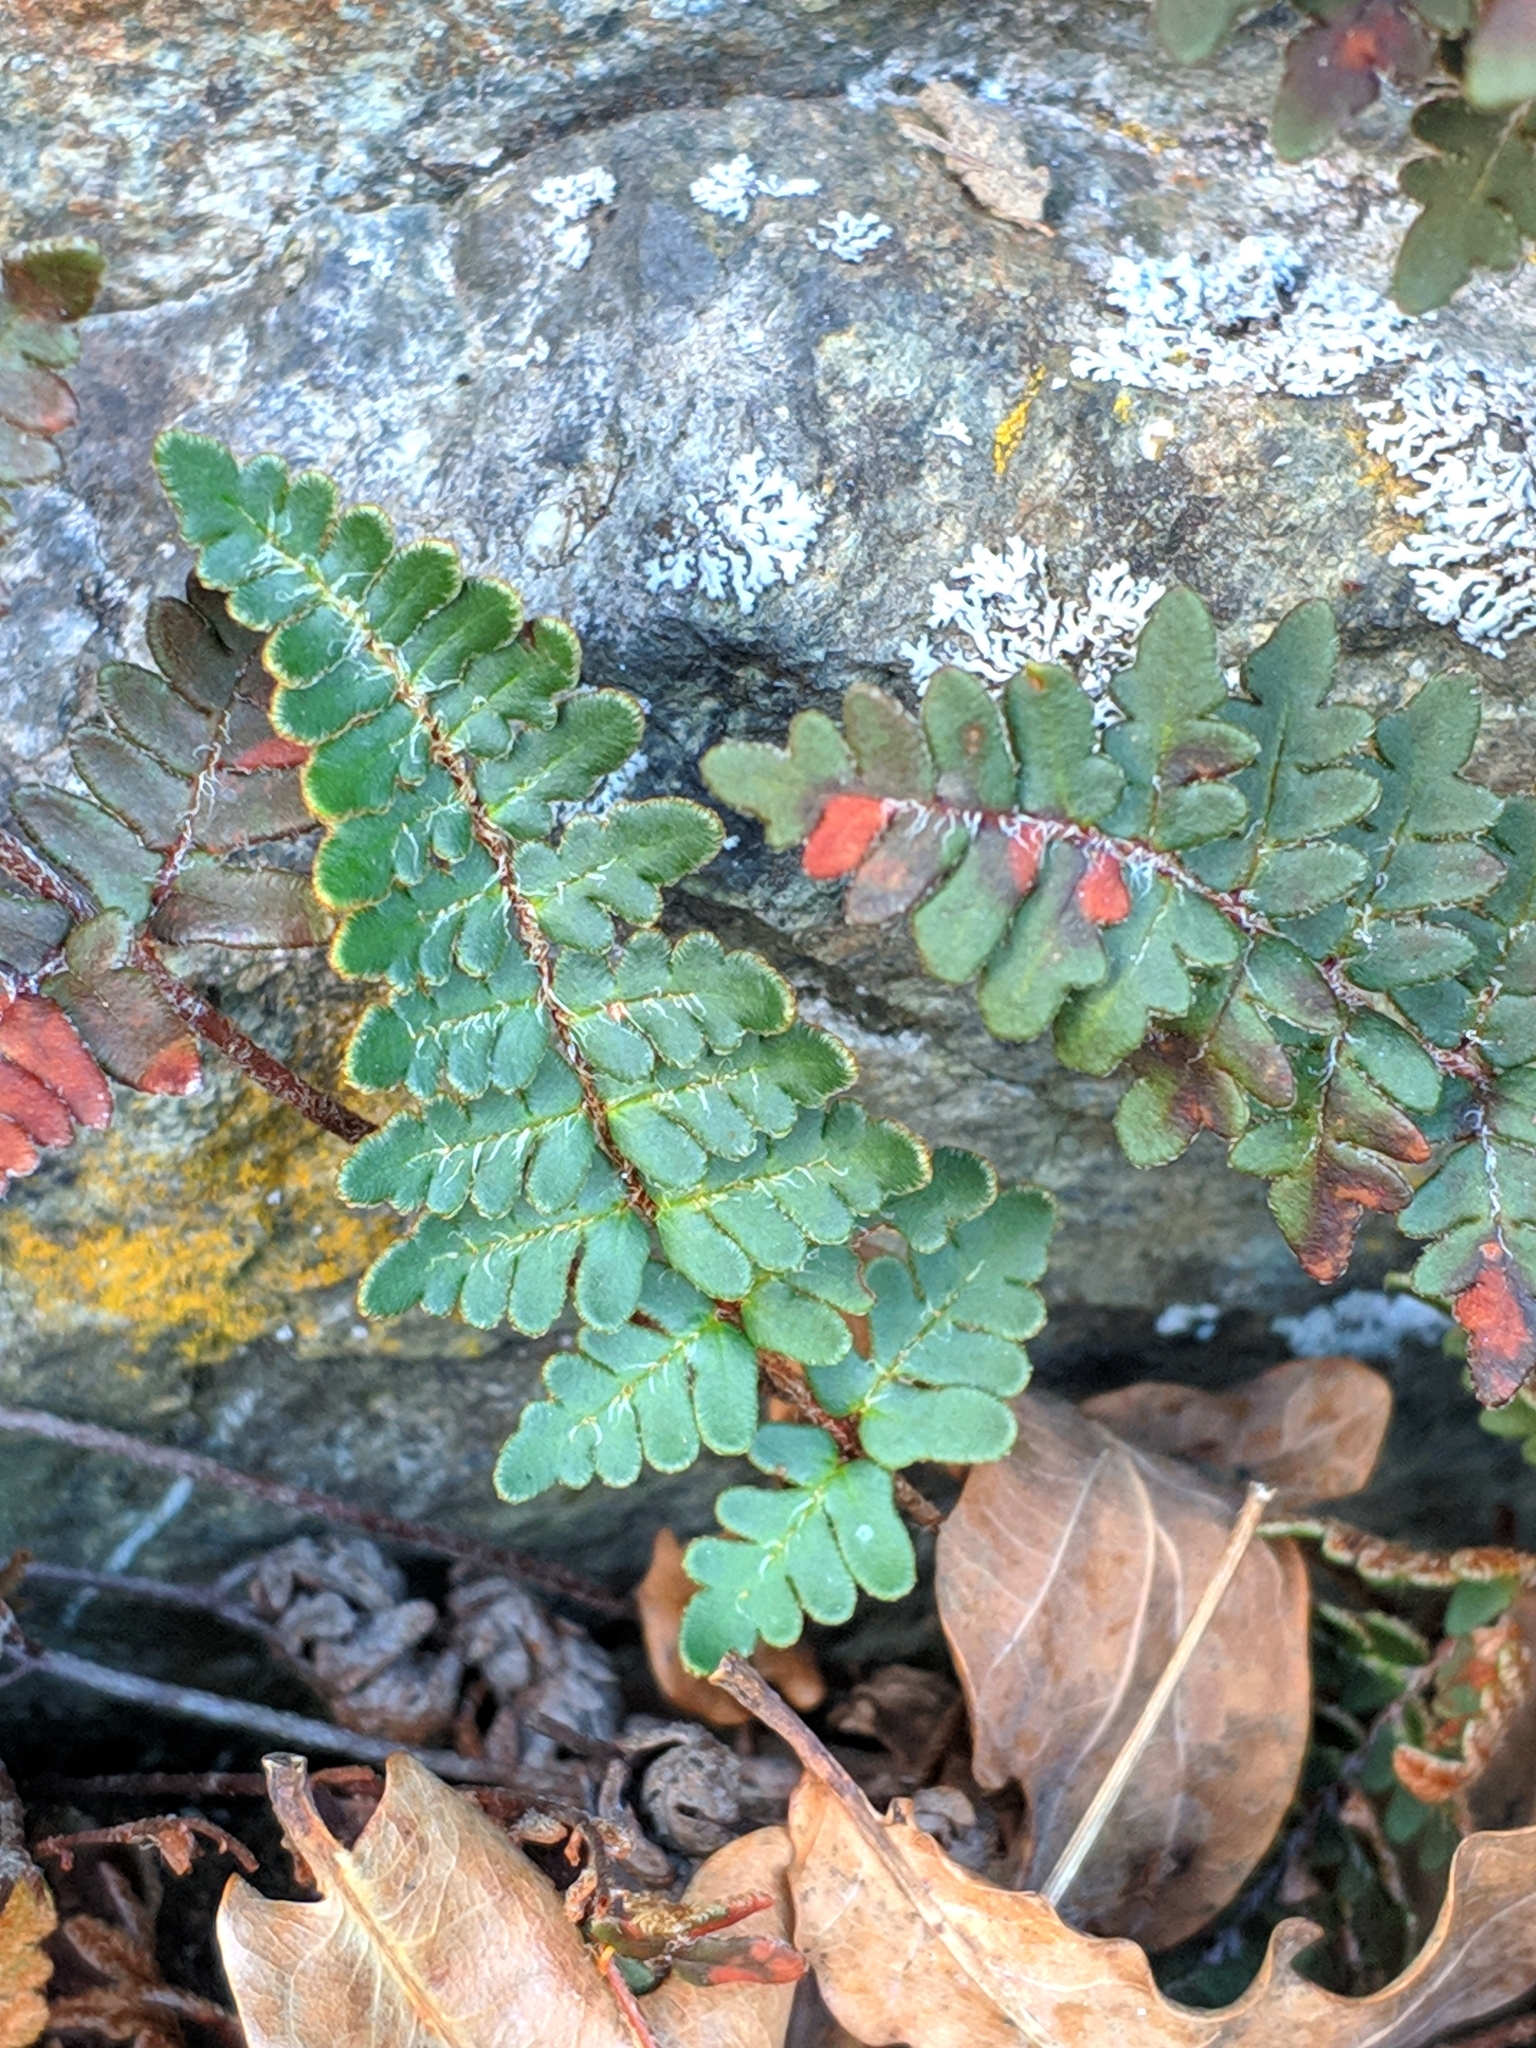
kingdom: Plantae
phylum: Tracheophyta
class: Polypodiopsida
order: Polypodiales
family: Pteridaceae
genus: Paragymnopteris
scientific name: Paragymnopteris marantae
